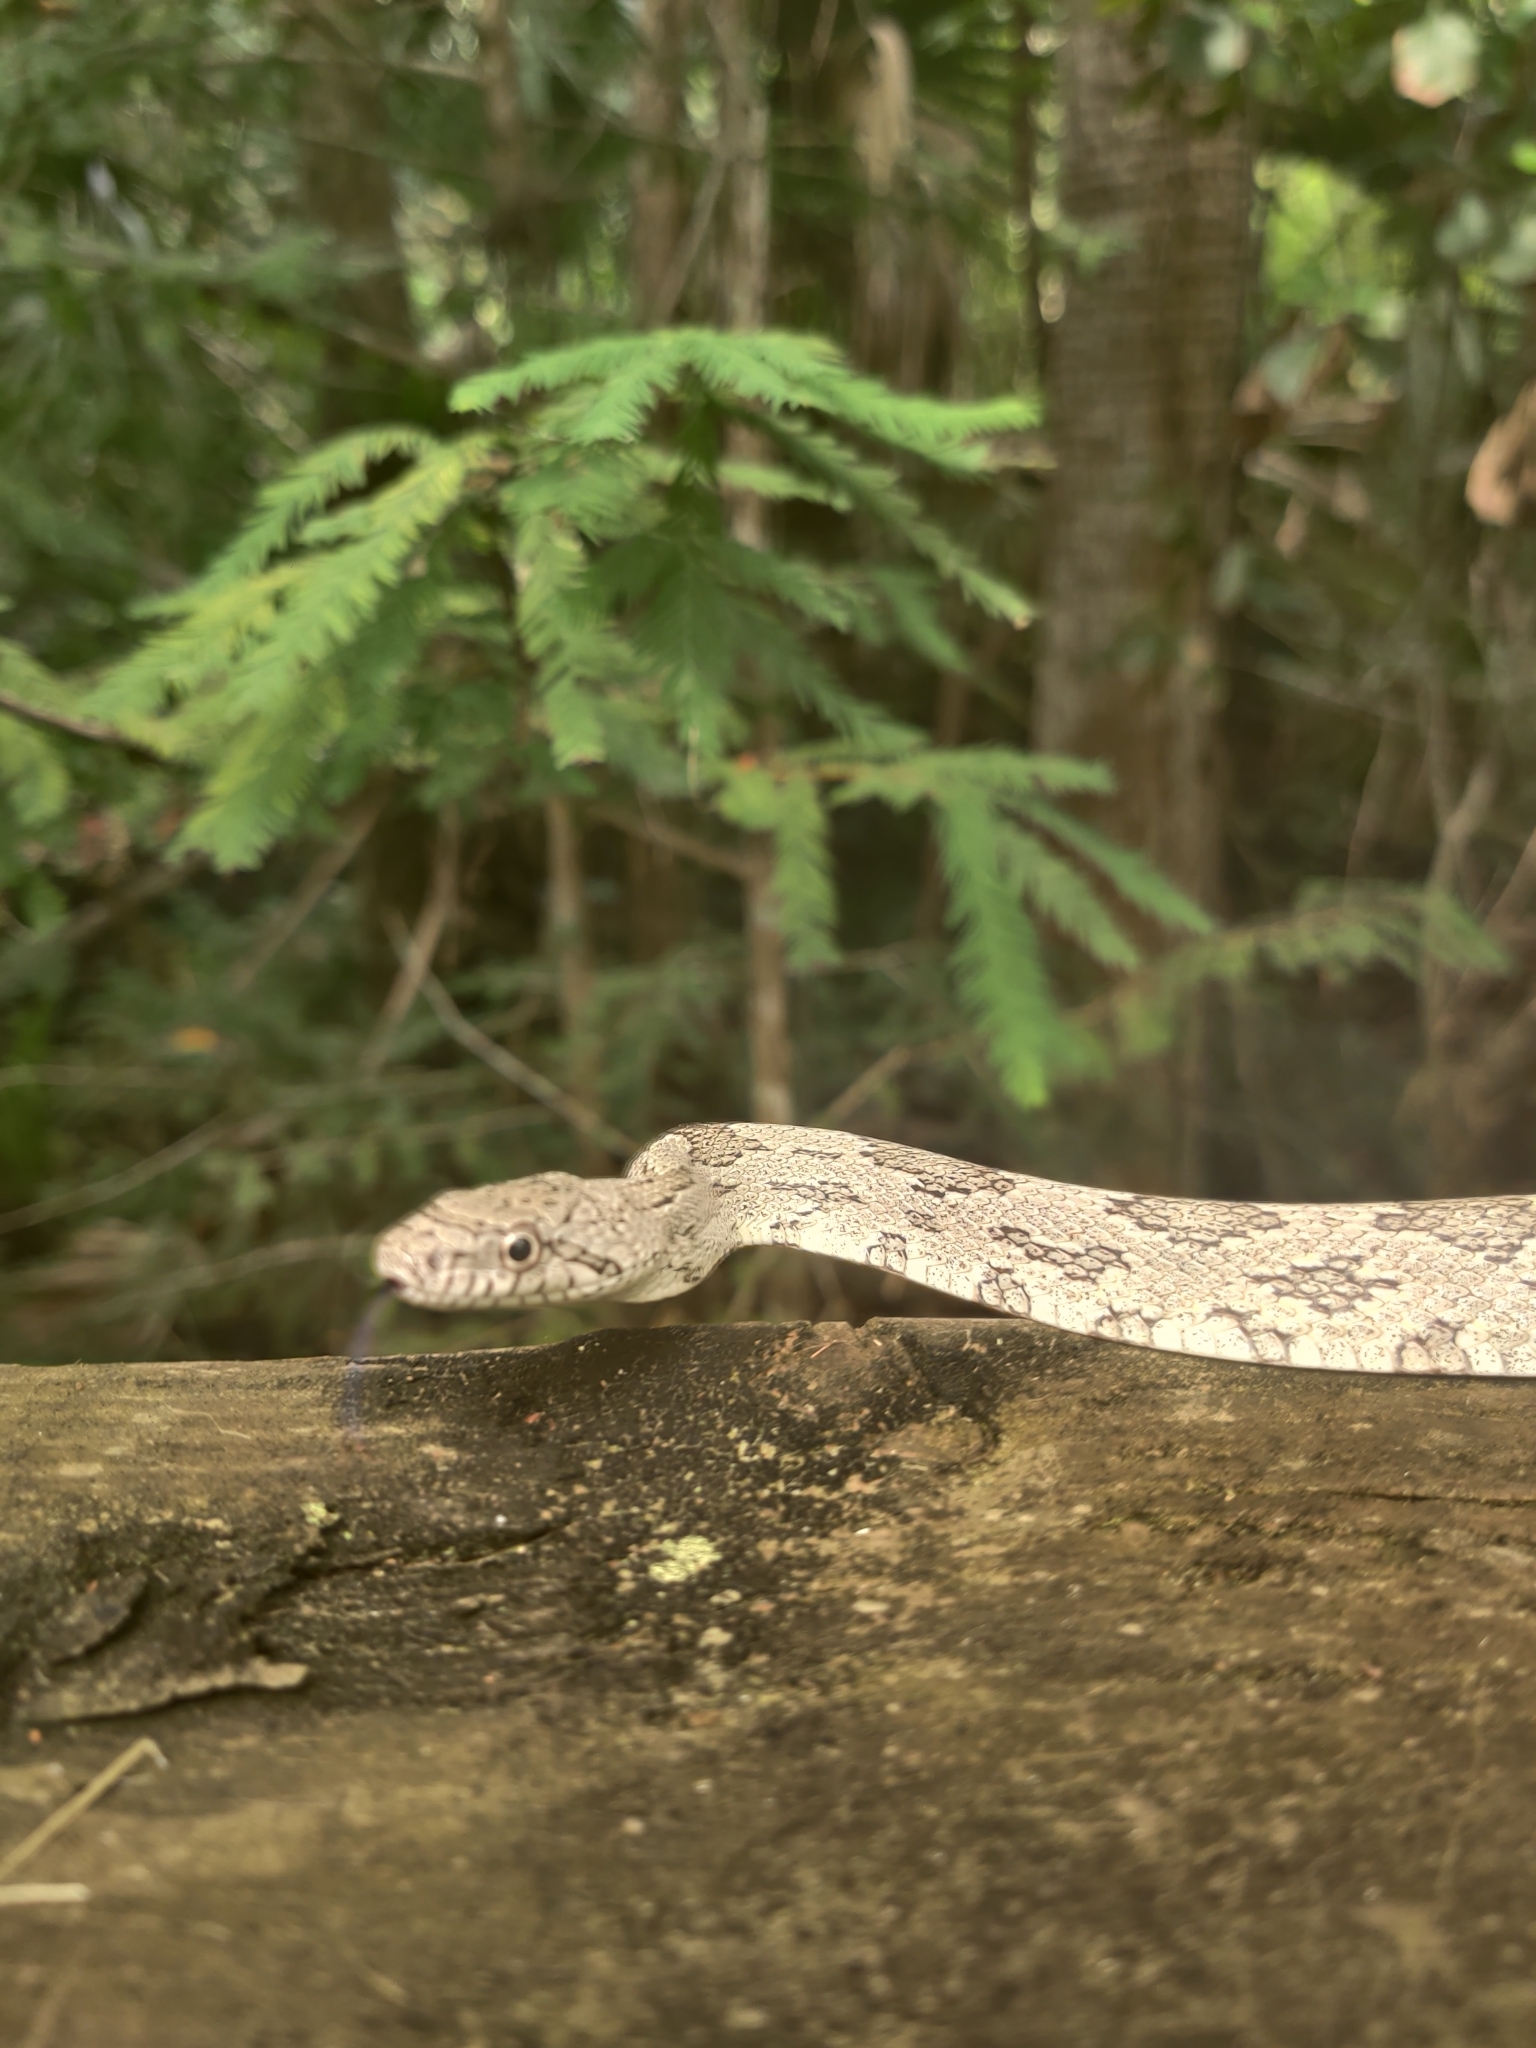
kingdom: Animalia
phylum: Chordata
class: Squamata
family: Colubridae
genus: Pantherophis
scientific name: Pantherophis spiloides
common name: Gray rat snake
